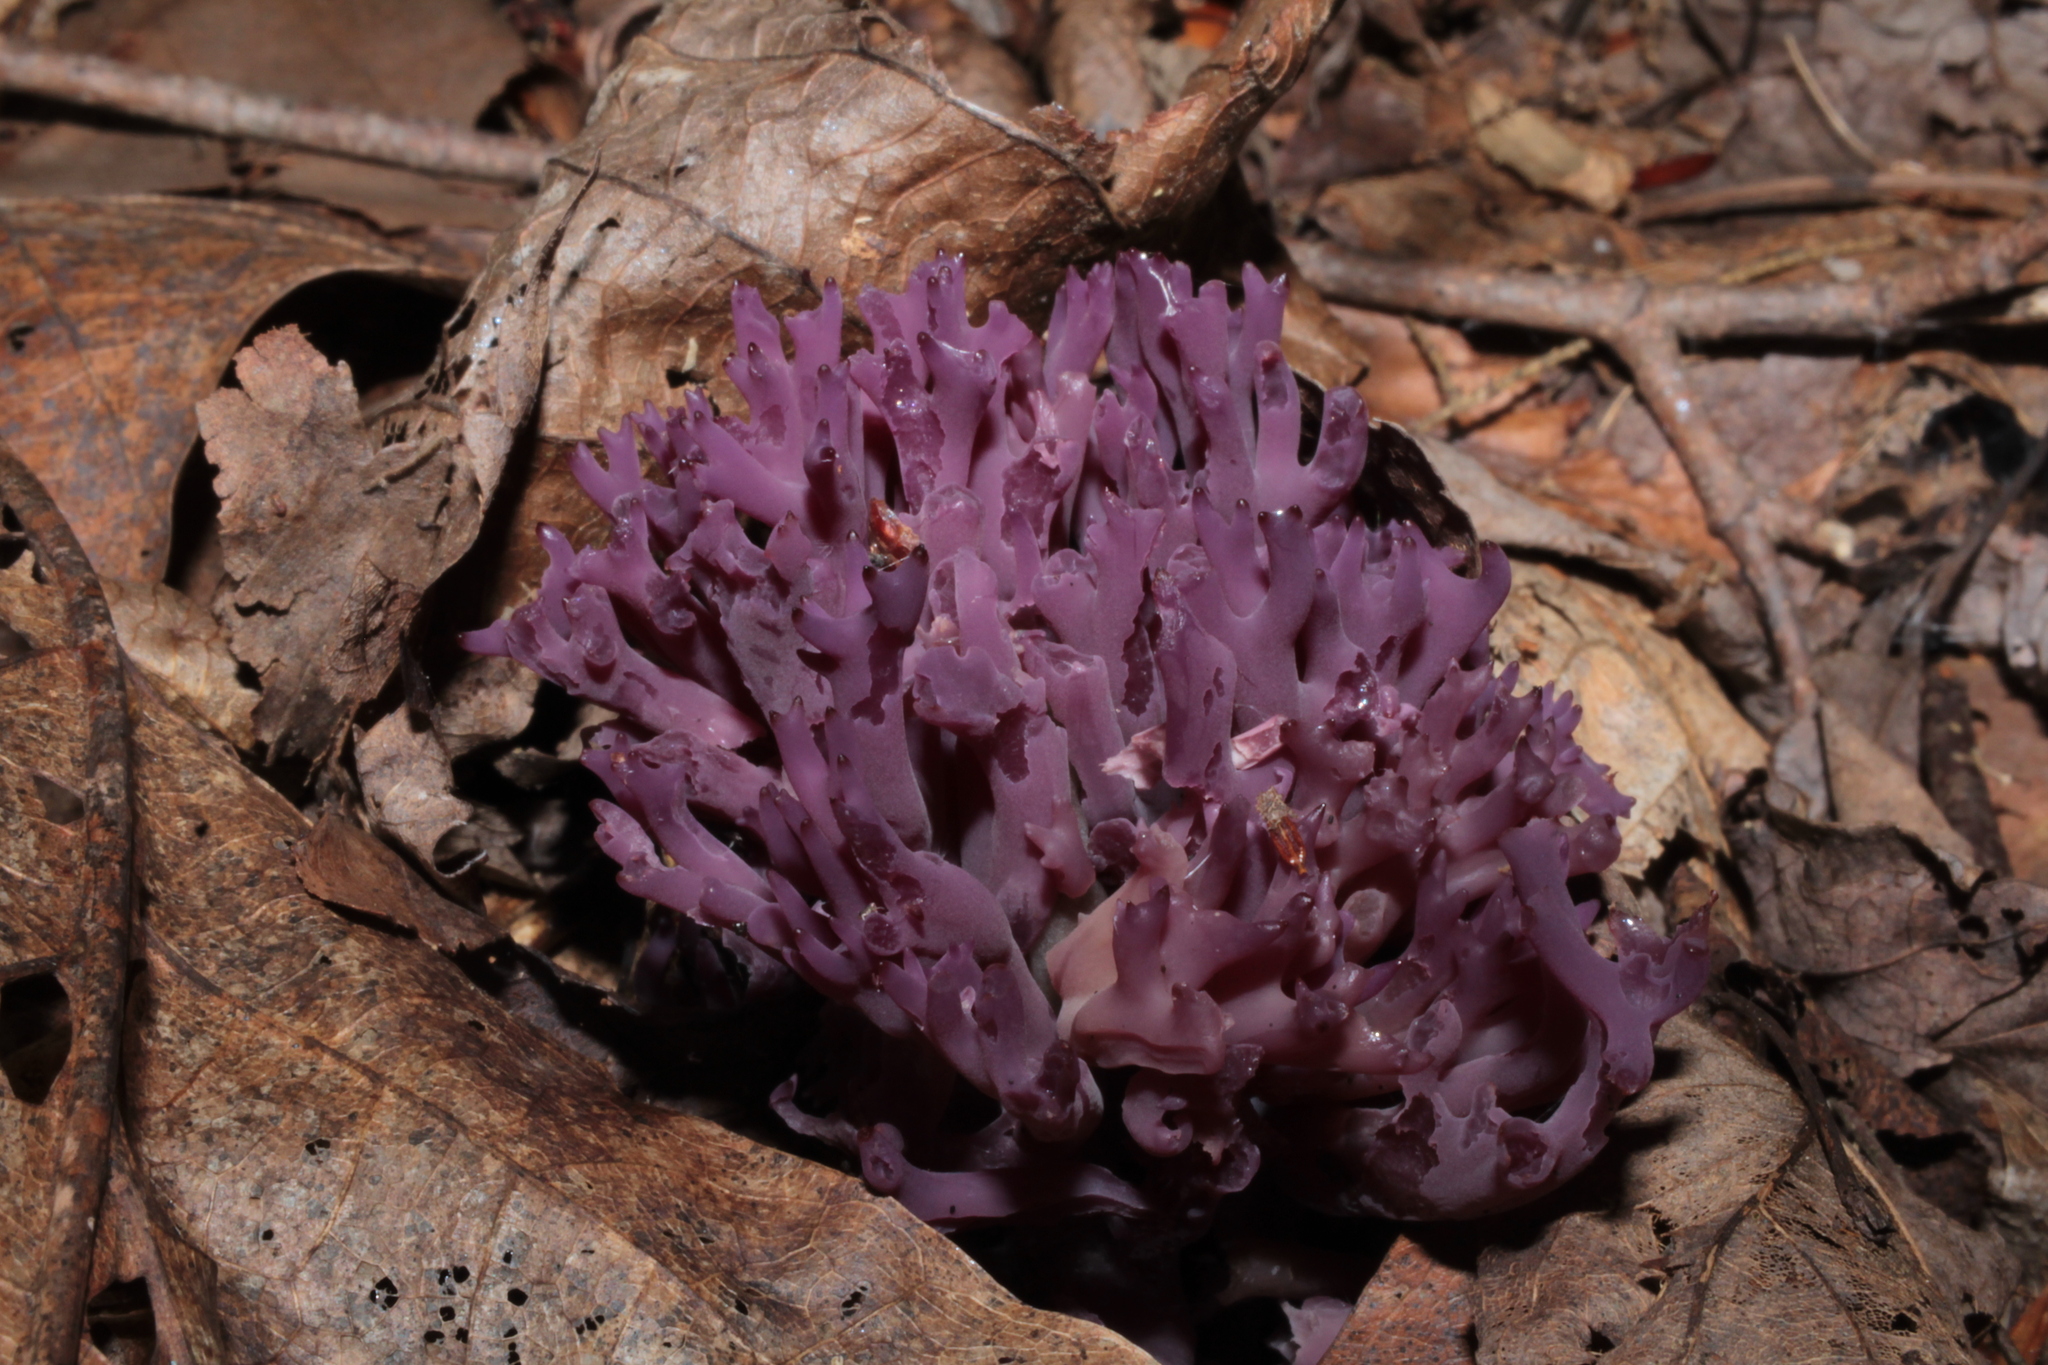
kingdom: Fungi
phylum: Basidiomycota
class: Agaricomycetes
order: Agaricales
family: Clavariaceae
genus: Clavaria
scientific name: Clavaria zollingeri
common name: Violet coral
